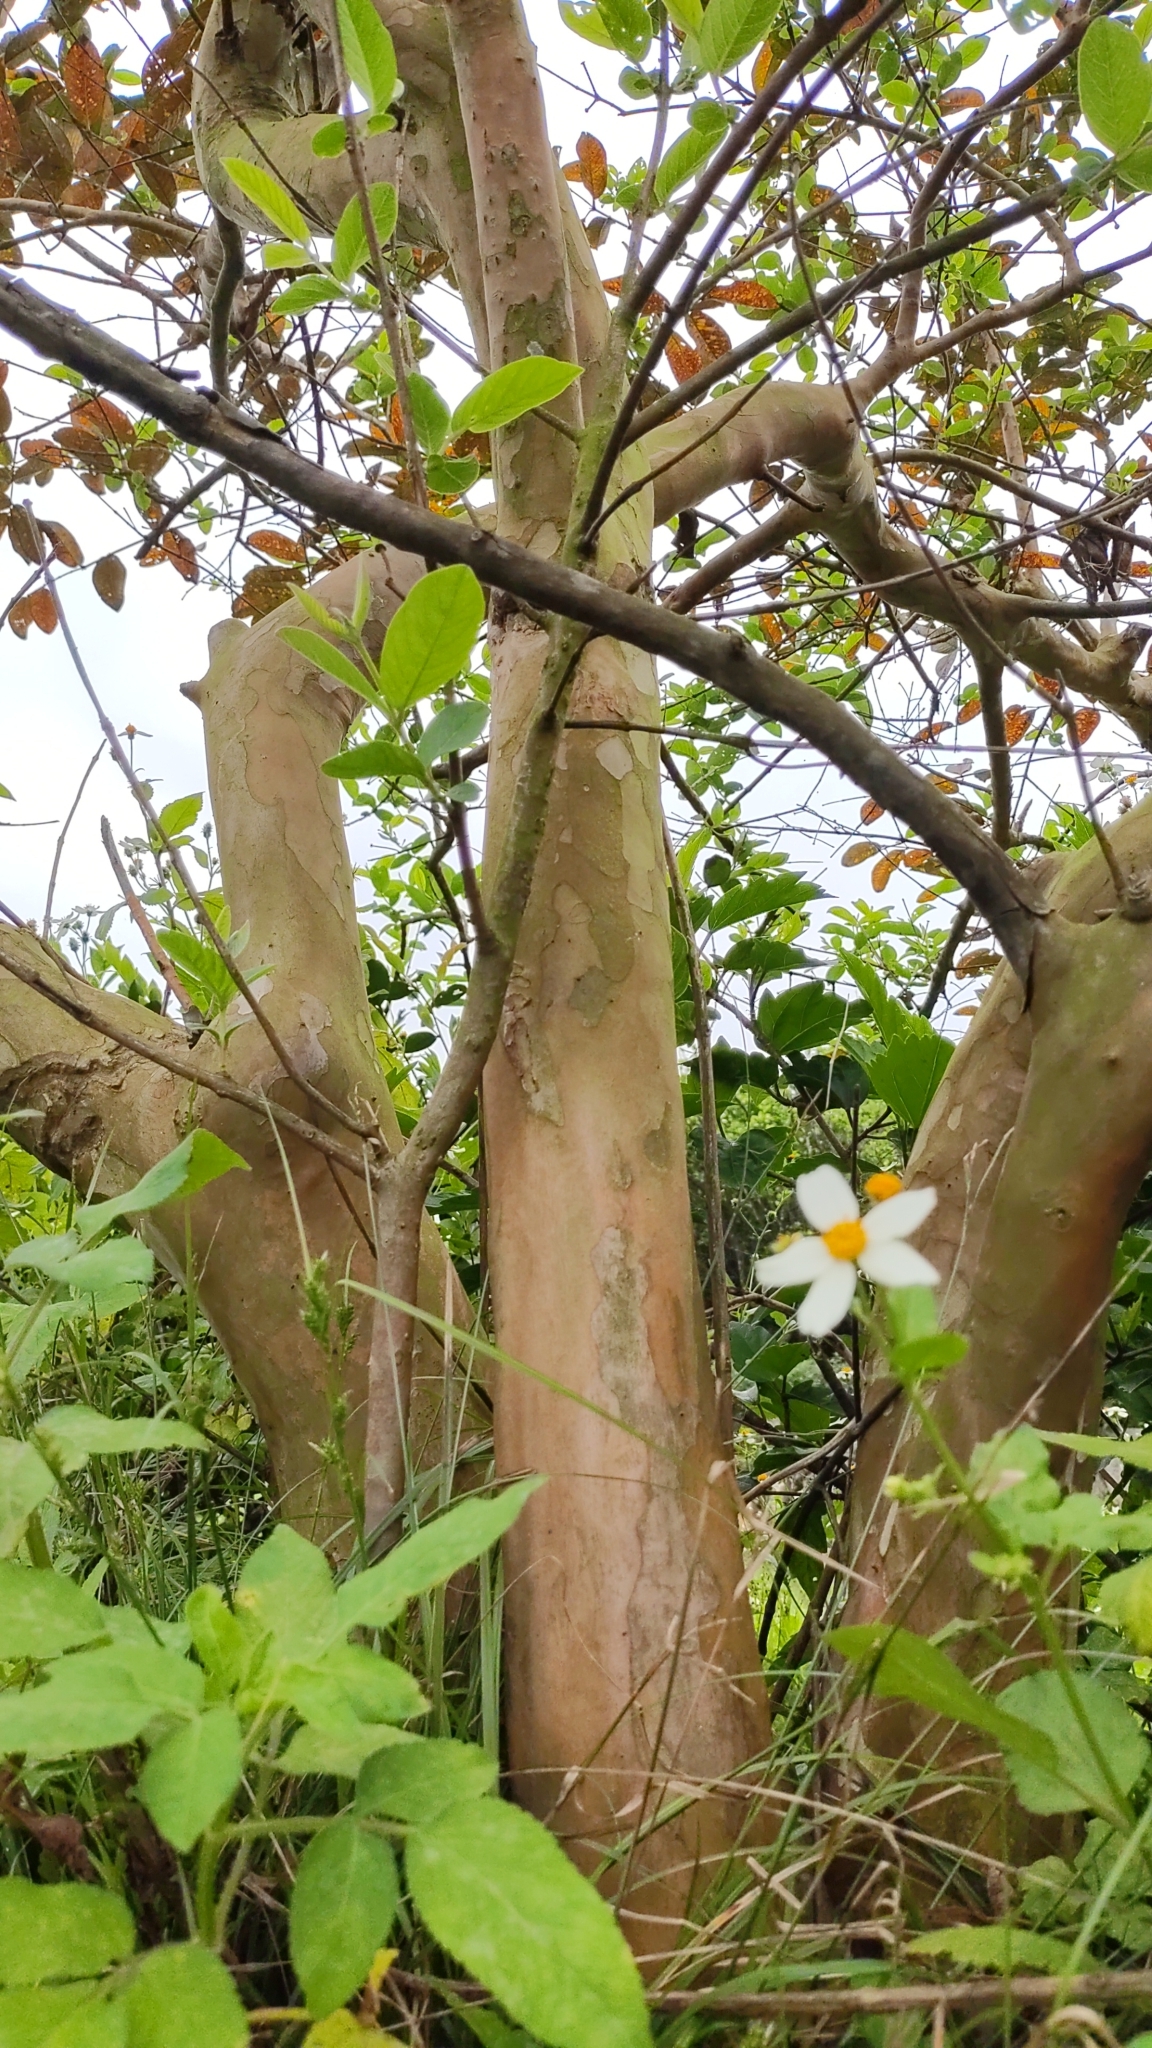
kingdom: Plantae
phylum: Tracheophyta
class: Magnoliopsida
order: Myrtales
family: Myrtaceae
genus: Psidium
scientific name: Psidium guajava
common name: Guava
